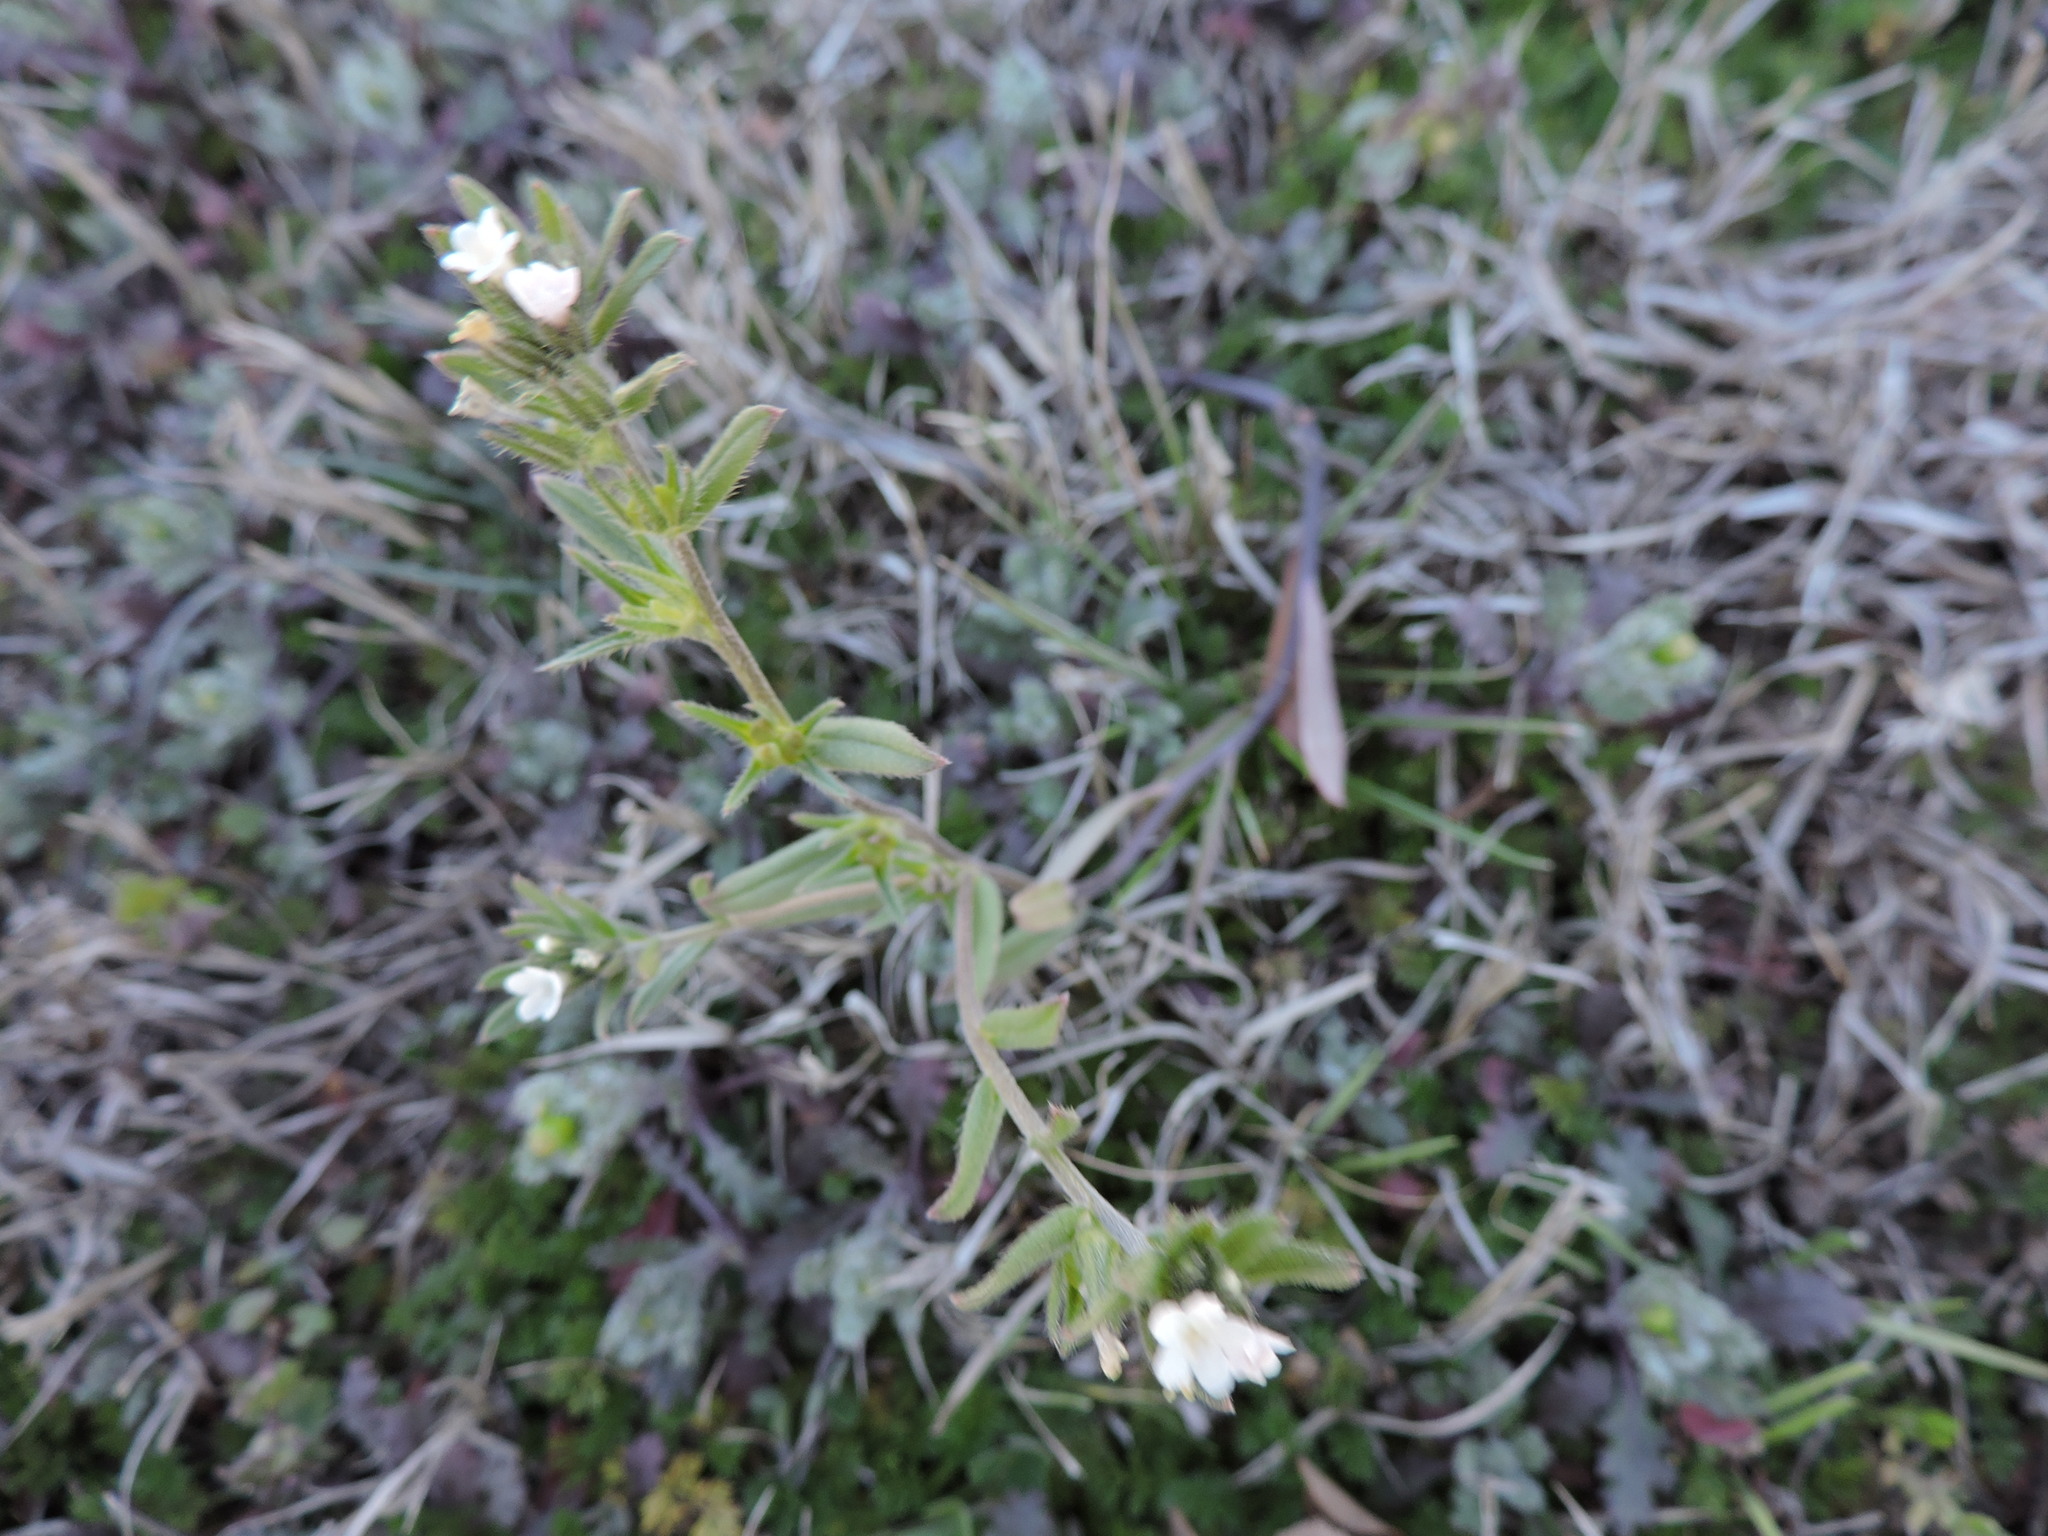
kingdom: Plantae
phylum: Tracheophyta
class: Magnoliopsida
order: Boraginales
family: Boraginaceae
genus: Buglossoides
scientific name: Buglossoides arvensis
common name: Corn gromwell
